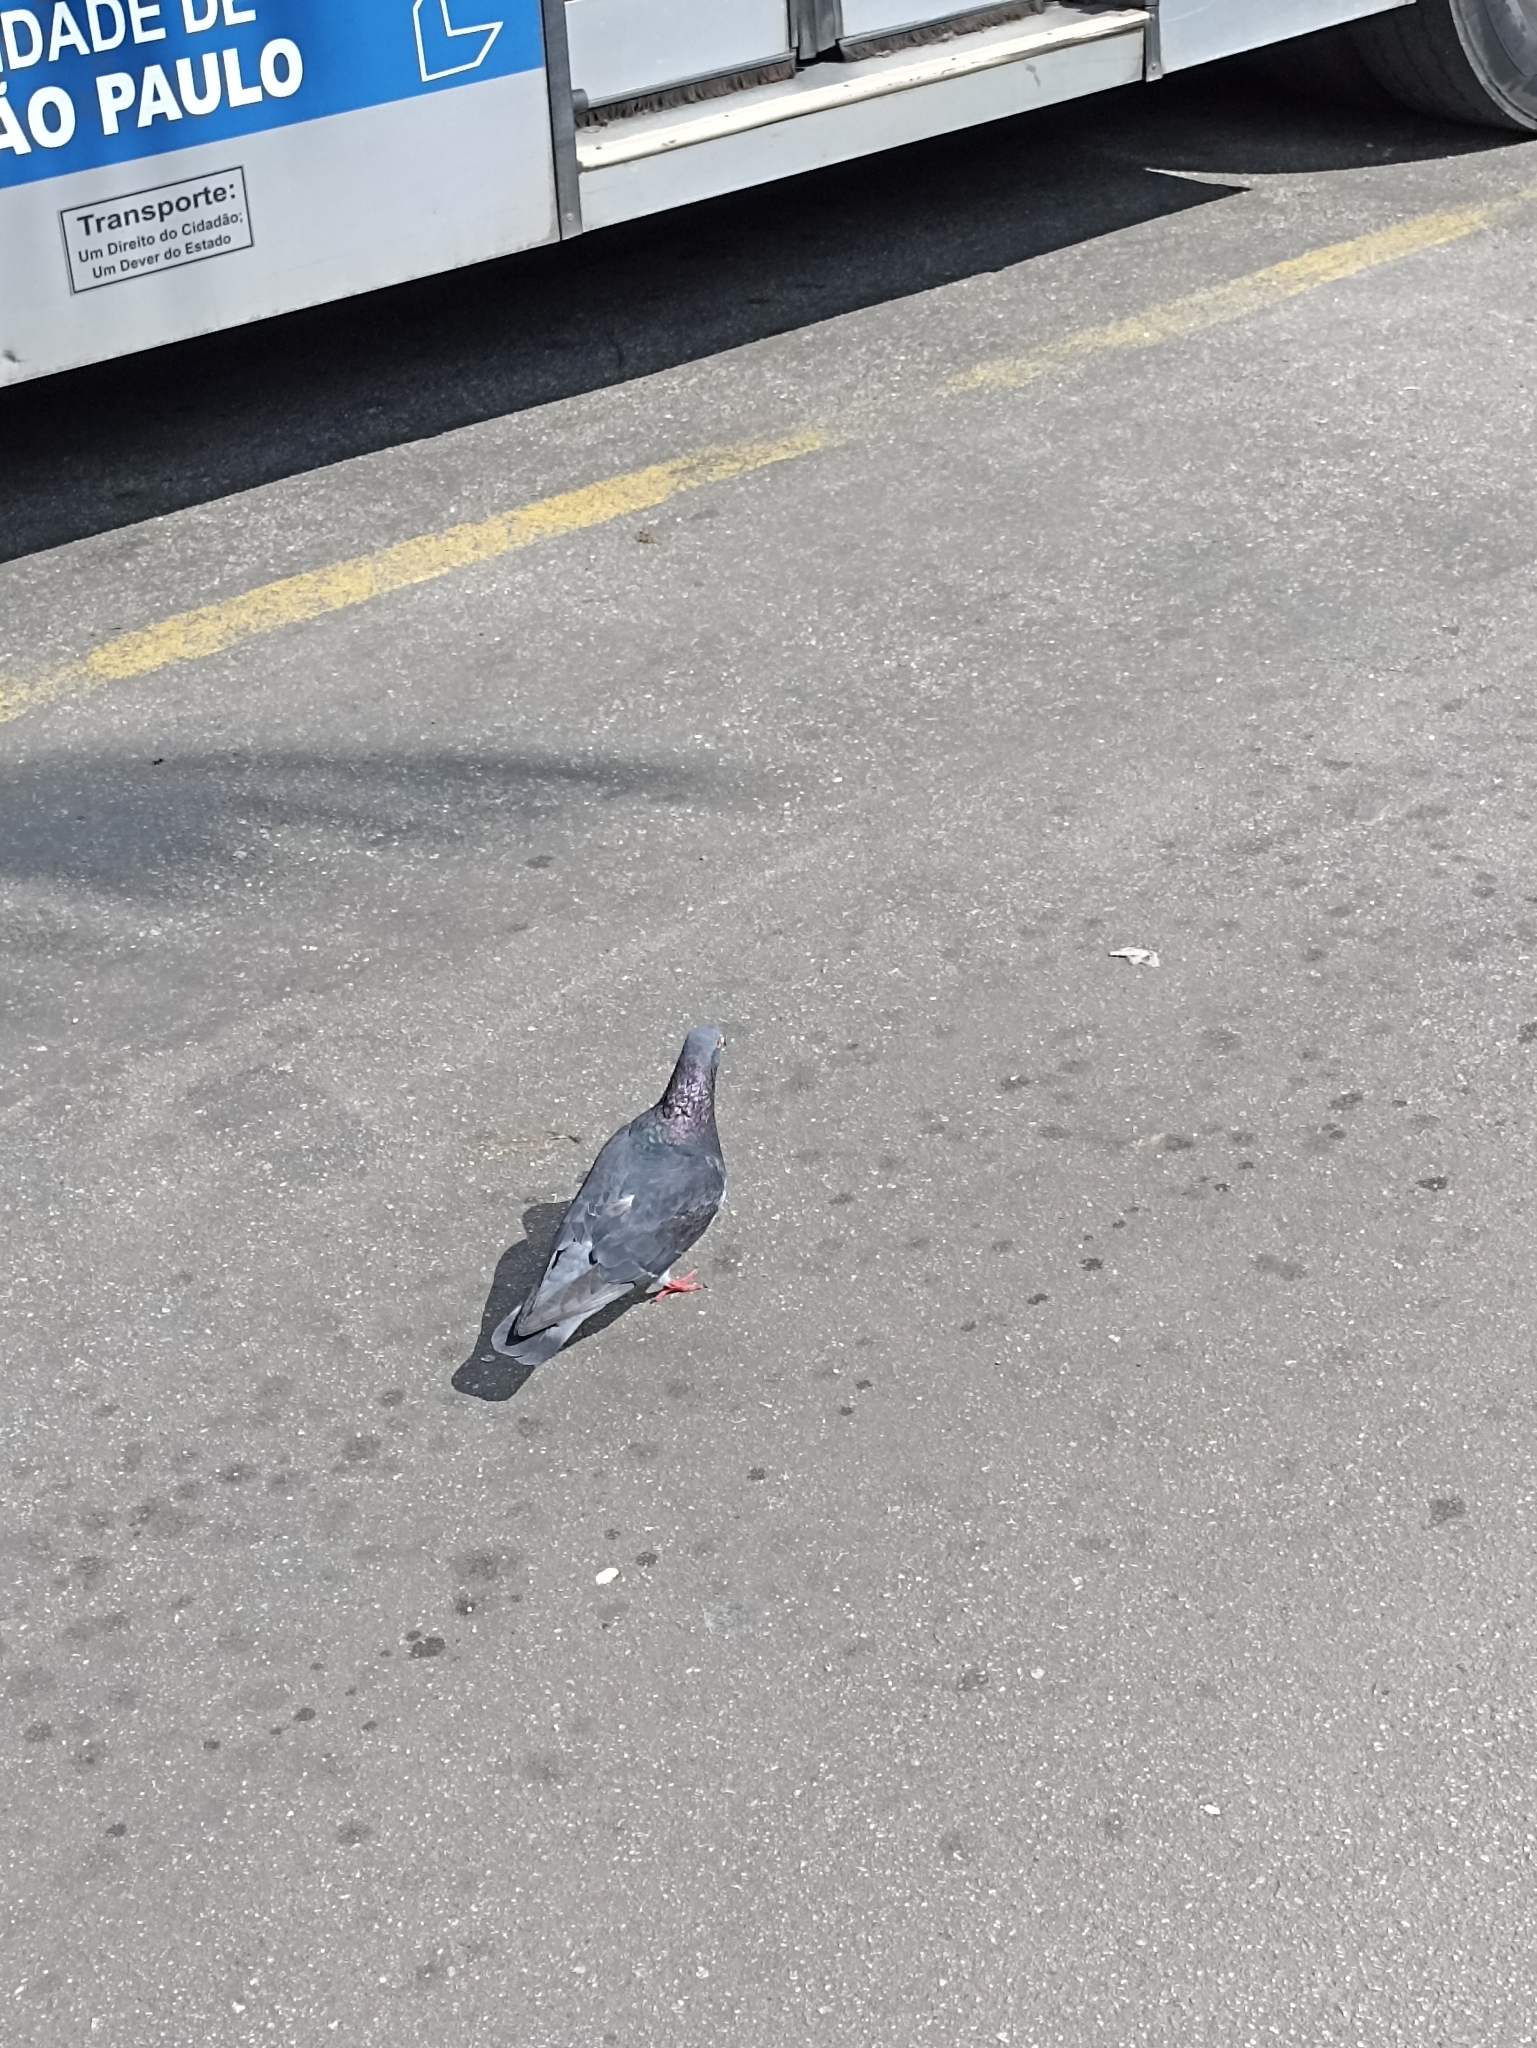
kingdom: Animalia
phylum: Chordata
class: Aves
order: Columbiformes
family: Columbidae
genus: Columba
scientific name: Columba livia
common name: Rock pigeon
